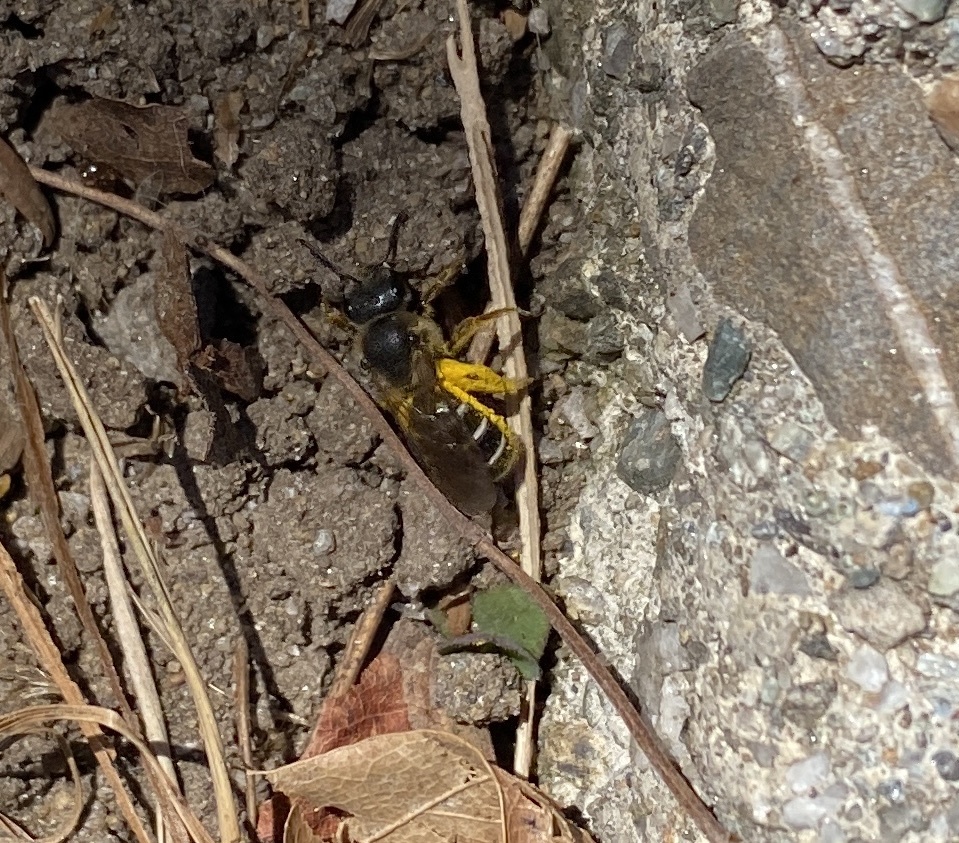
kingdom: Animalia
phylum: Arthropoda
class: Insecta
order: Hymenoptera
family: Halictidae
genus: Halictus
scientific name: Halictus rubicundus
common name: Orange-legged furrow bee
